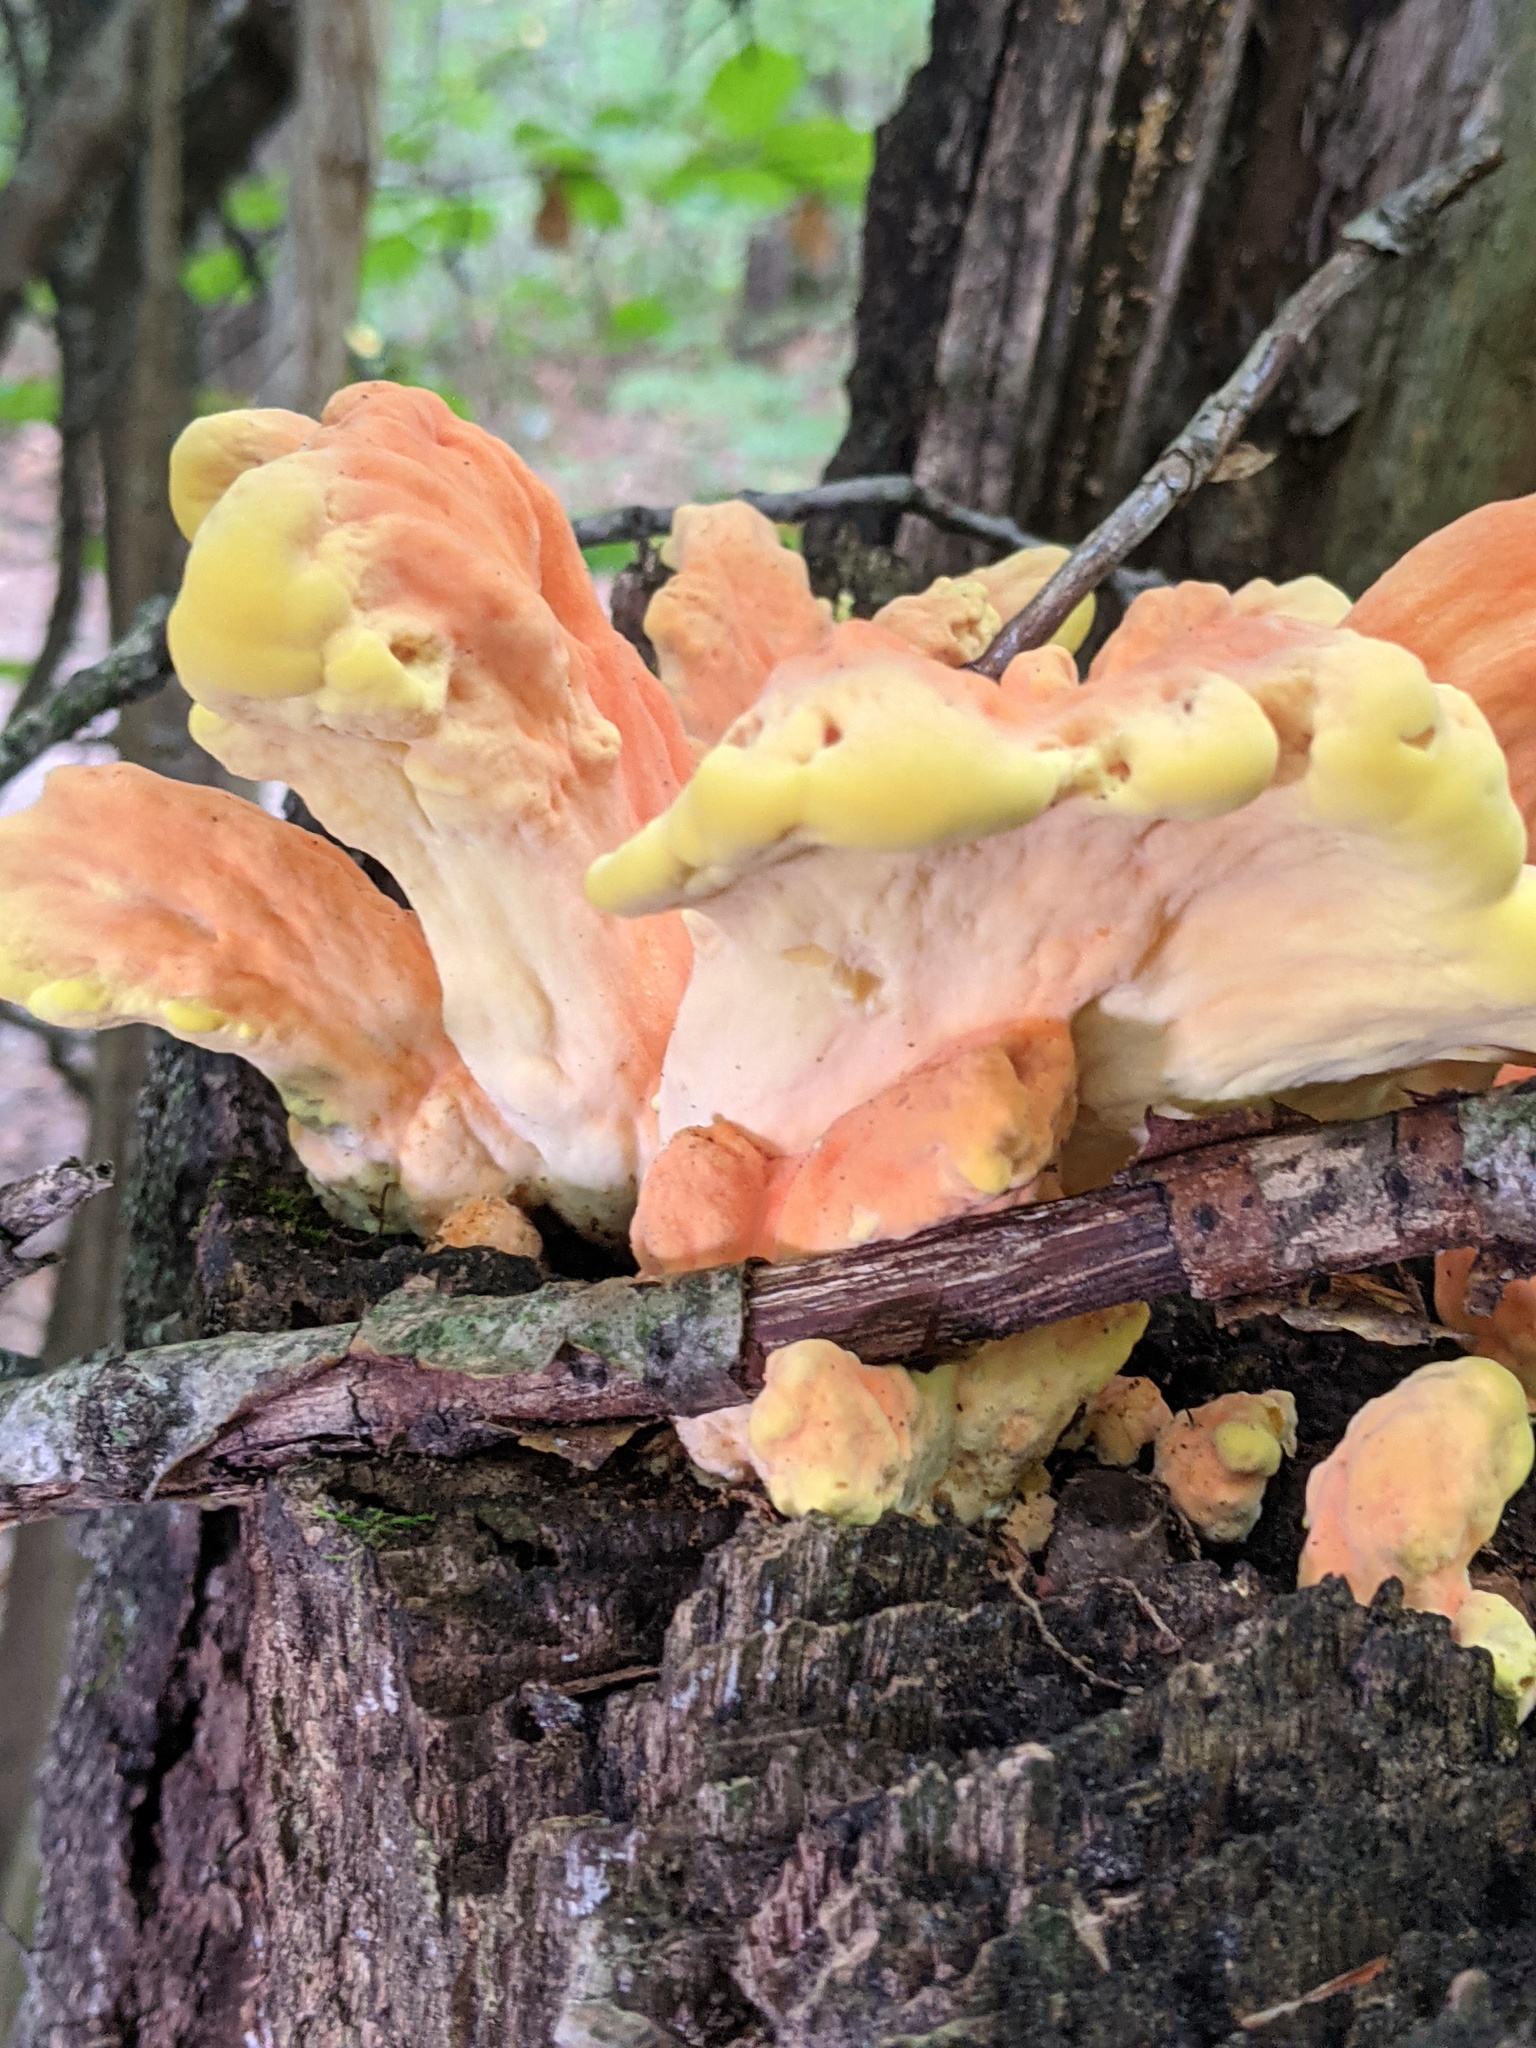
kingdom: Fungi
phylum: Basidiomycota
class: Agaricomycetes
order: Polyporales
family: Laetiporaceae
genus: Laetiporus
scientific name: Laetiporus sulphureus
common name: Chicken of the woods
